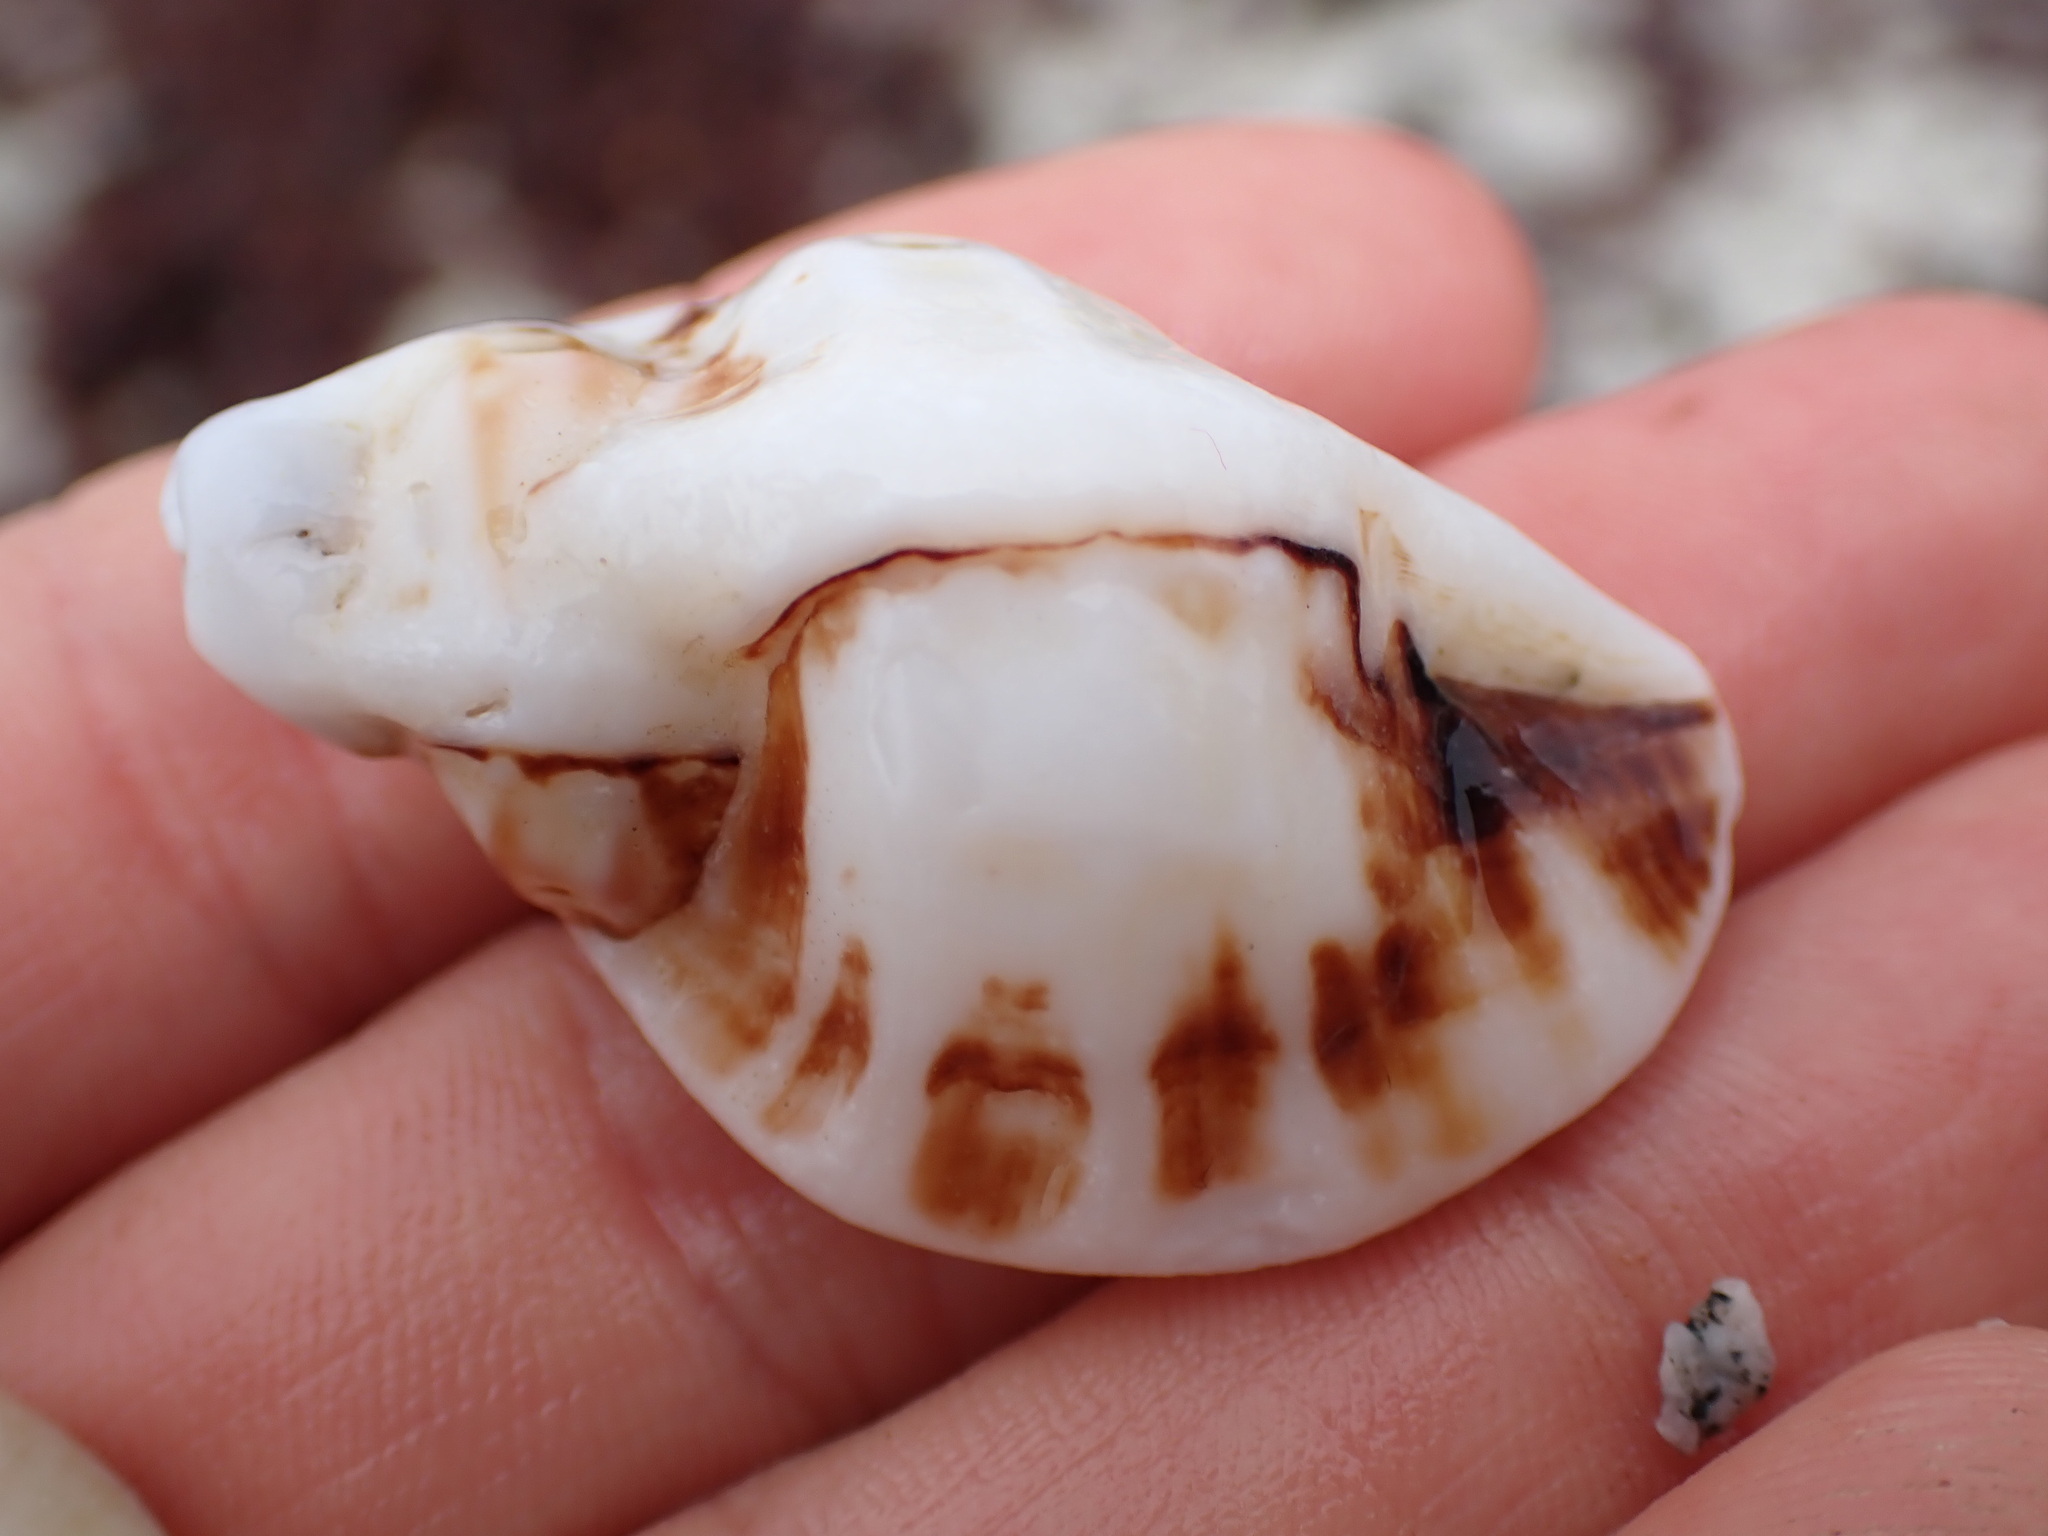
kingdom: Animalia
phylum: Mollusca
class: Gastropoda
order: Neogastropoda
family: Muricidae
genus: Ceratostoma
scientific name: Ceratostoma foliatum
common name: Foliate thorn purpura
